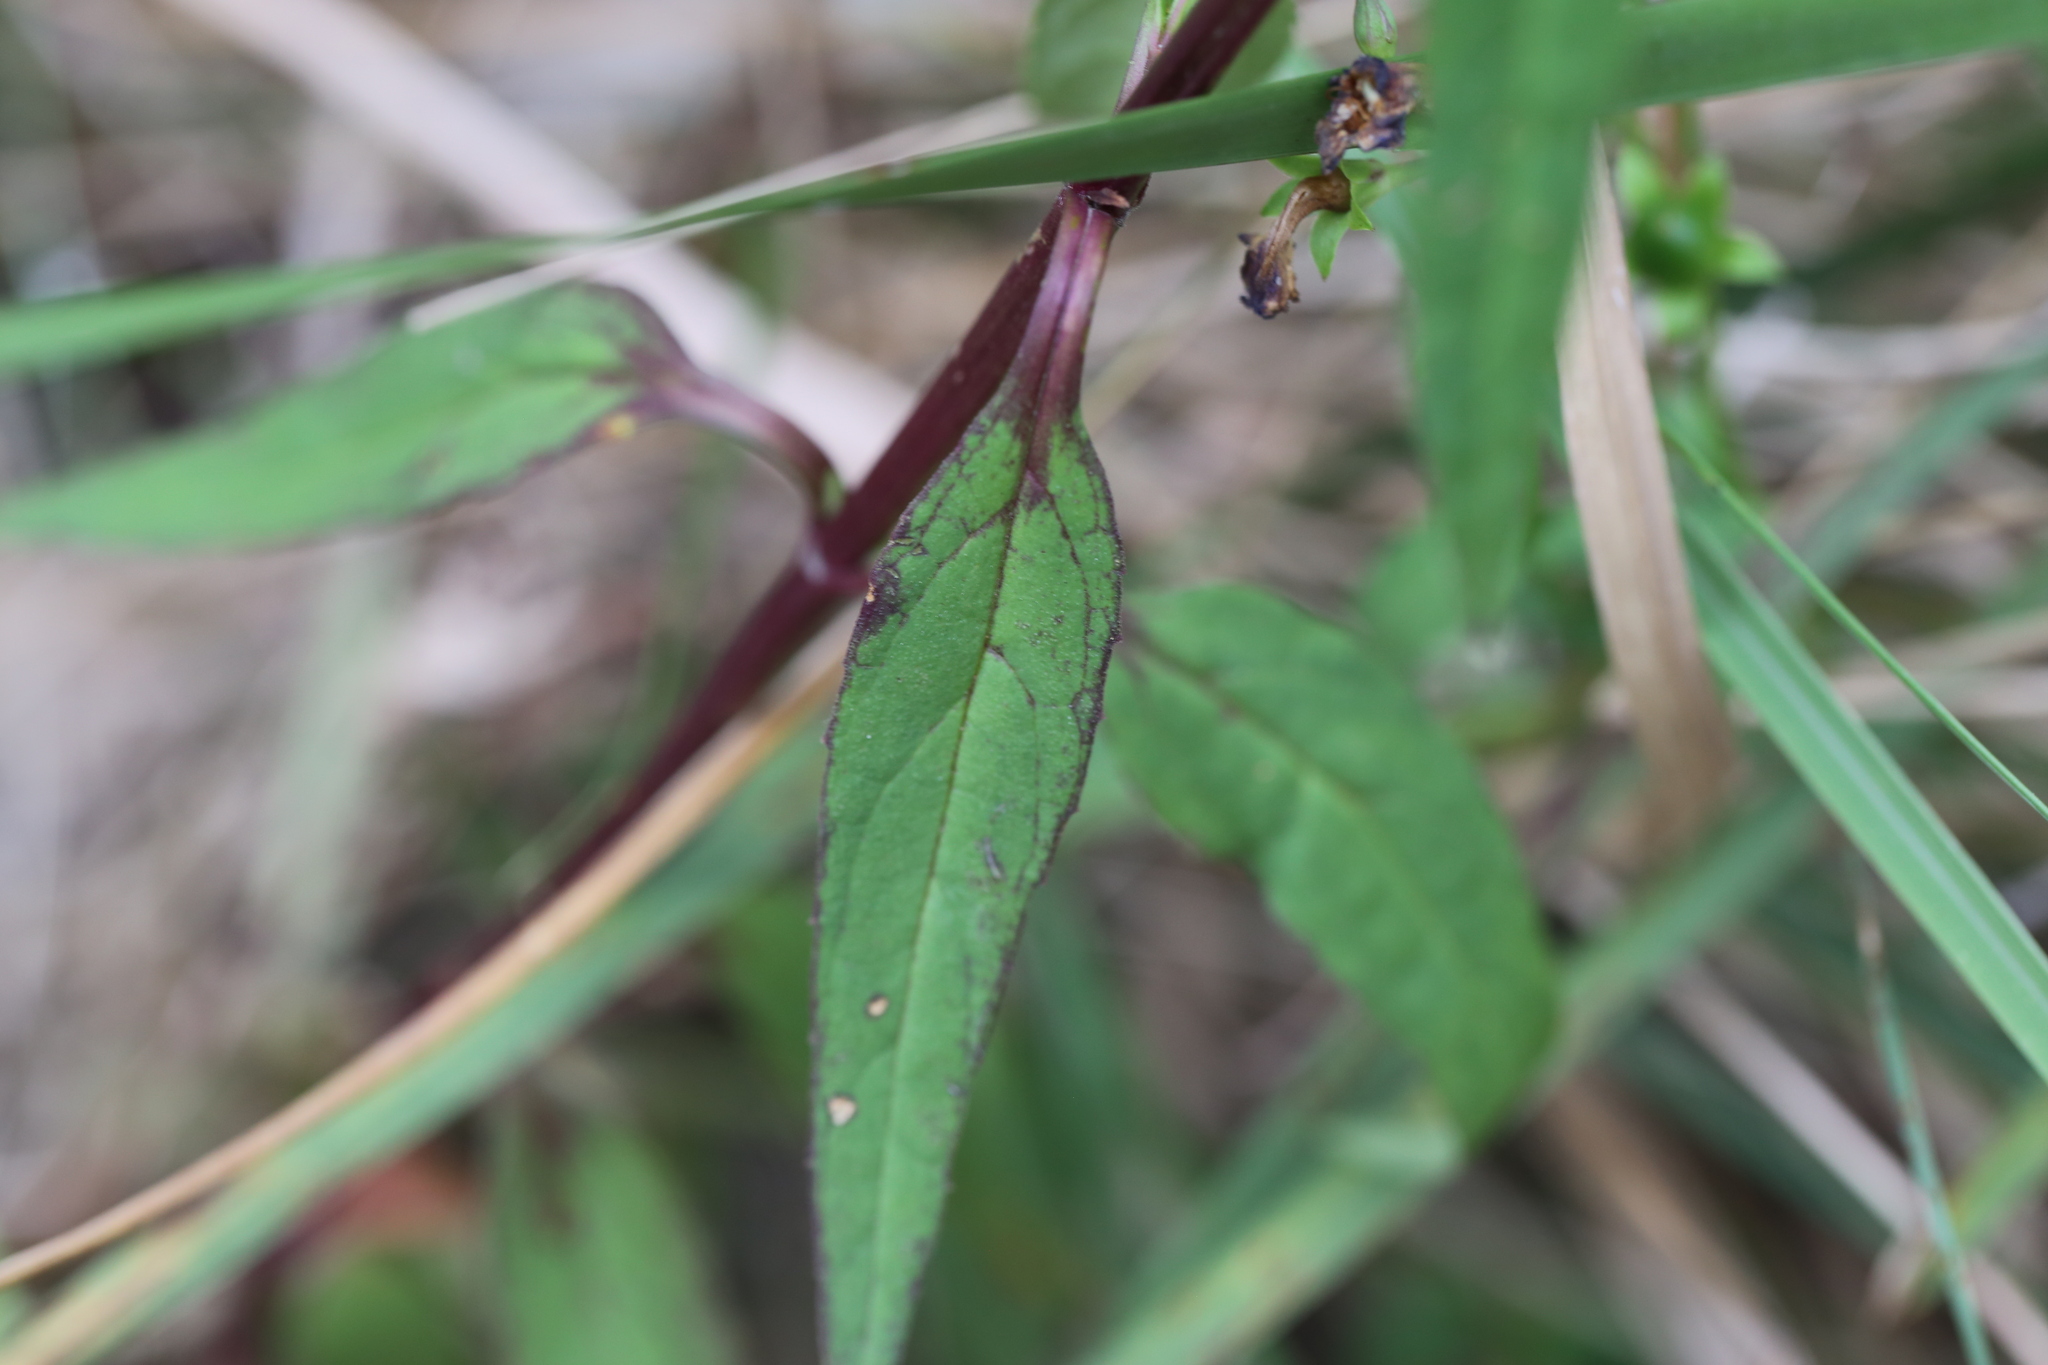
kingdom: Plantae
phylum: Tracheophyta
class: Magnoliopsida
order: Lamiales
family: Linderniaceae
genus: Artanema
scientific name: Artanema fimbriatum
